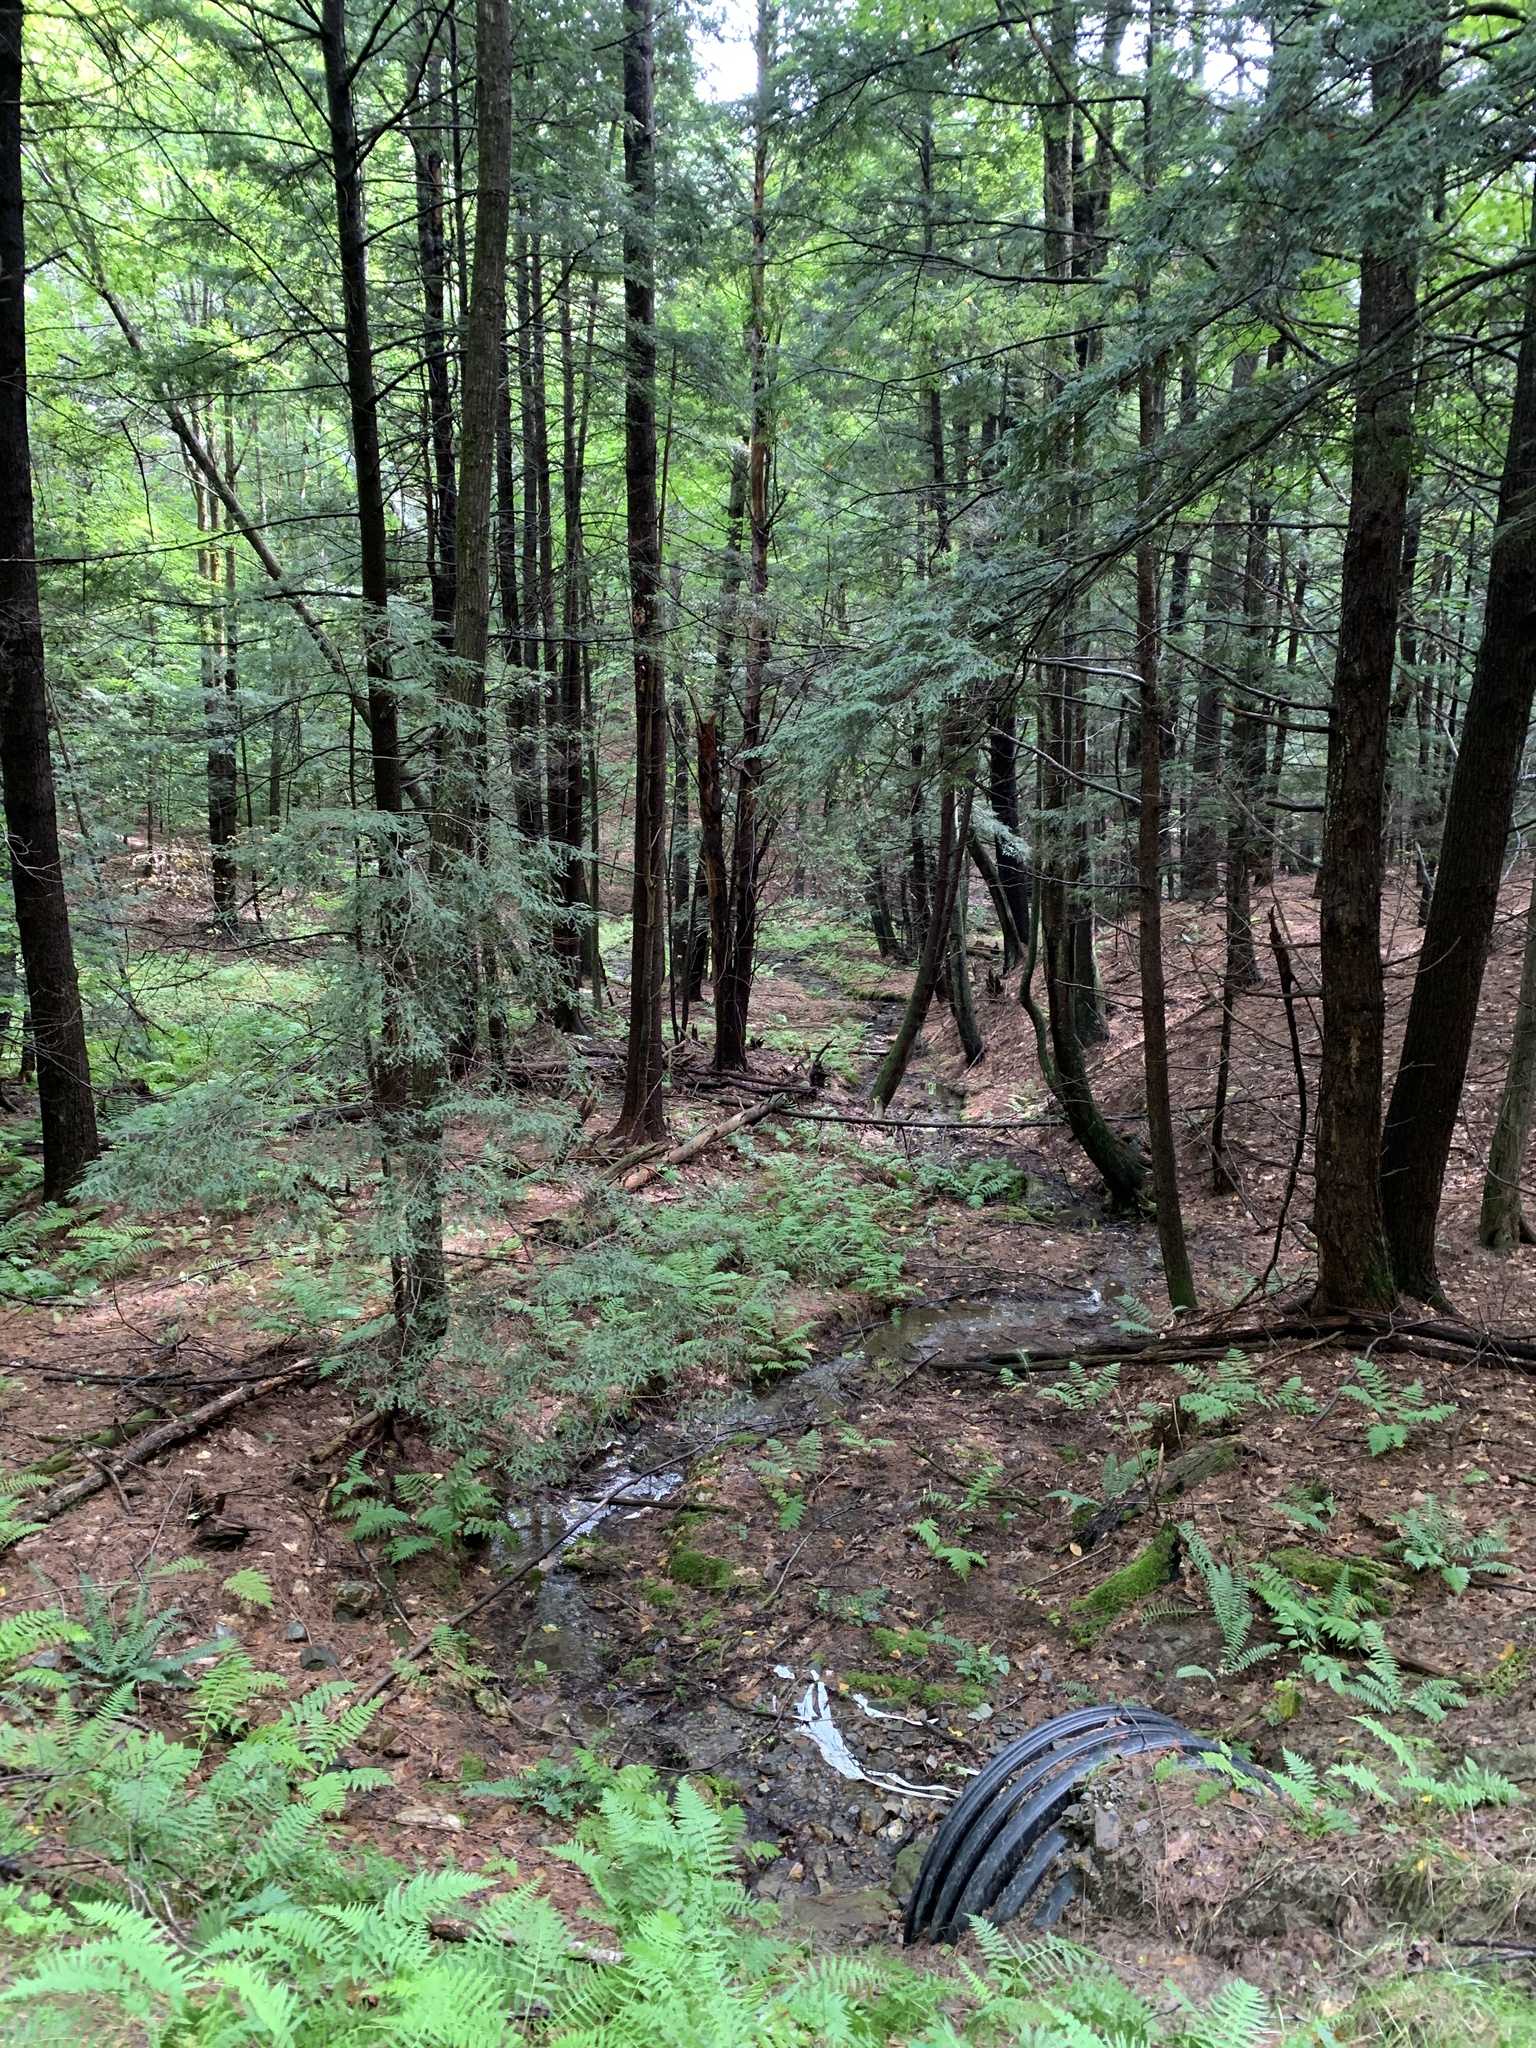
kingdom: Plantae
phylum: Tracheophyta
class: Pinopsida
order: Pinales
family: Pinaceae
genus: Tsuga
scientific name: Tsuga canadensis
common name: Eastern hemlock
